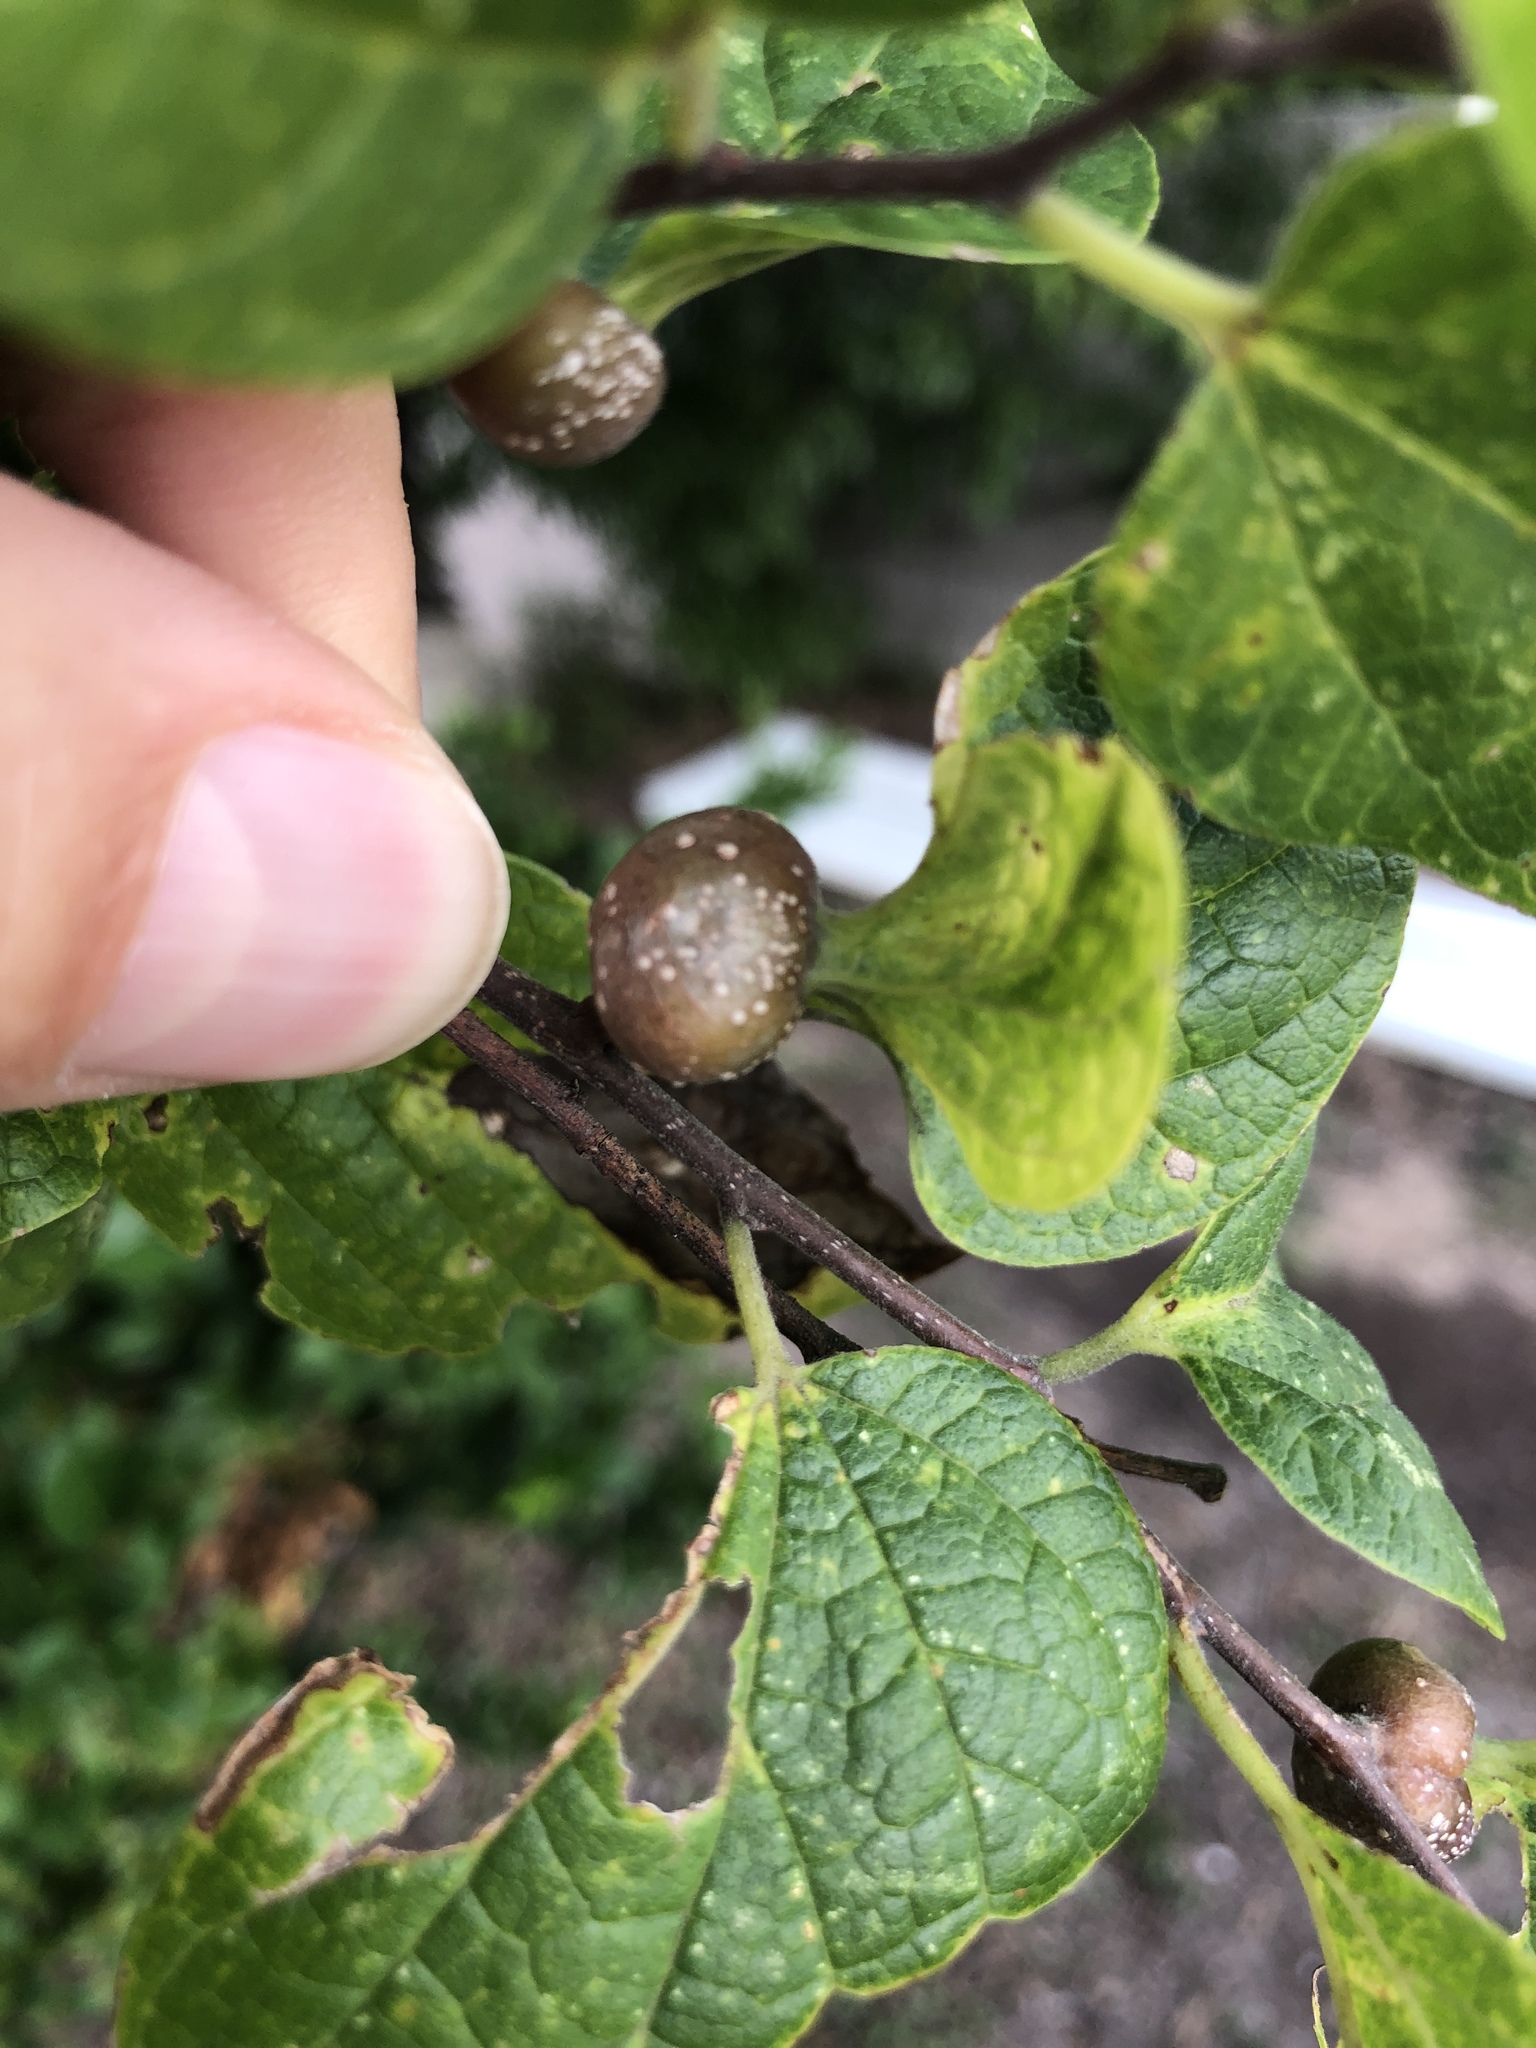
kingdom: Animalia
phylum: Arthropoda
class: Insecta
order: Hemiptera
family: Aphalaridae
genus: Pachypsylla
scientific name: Pachypsylla venusta
